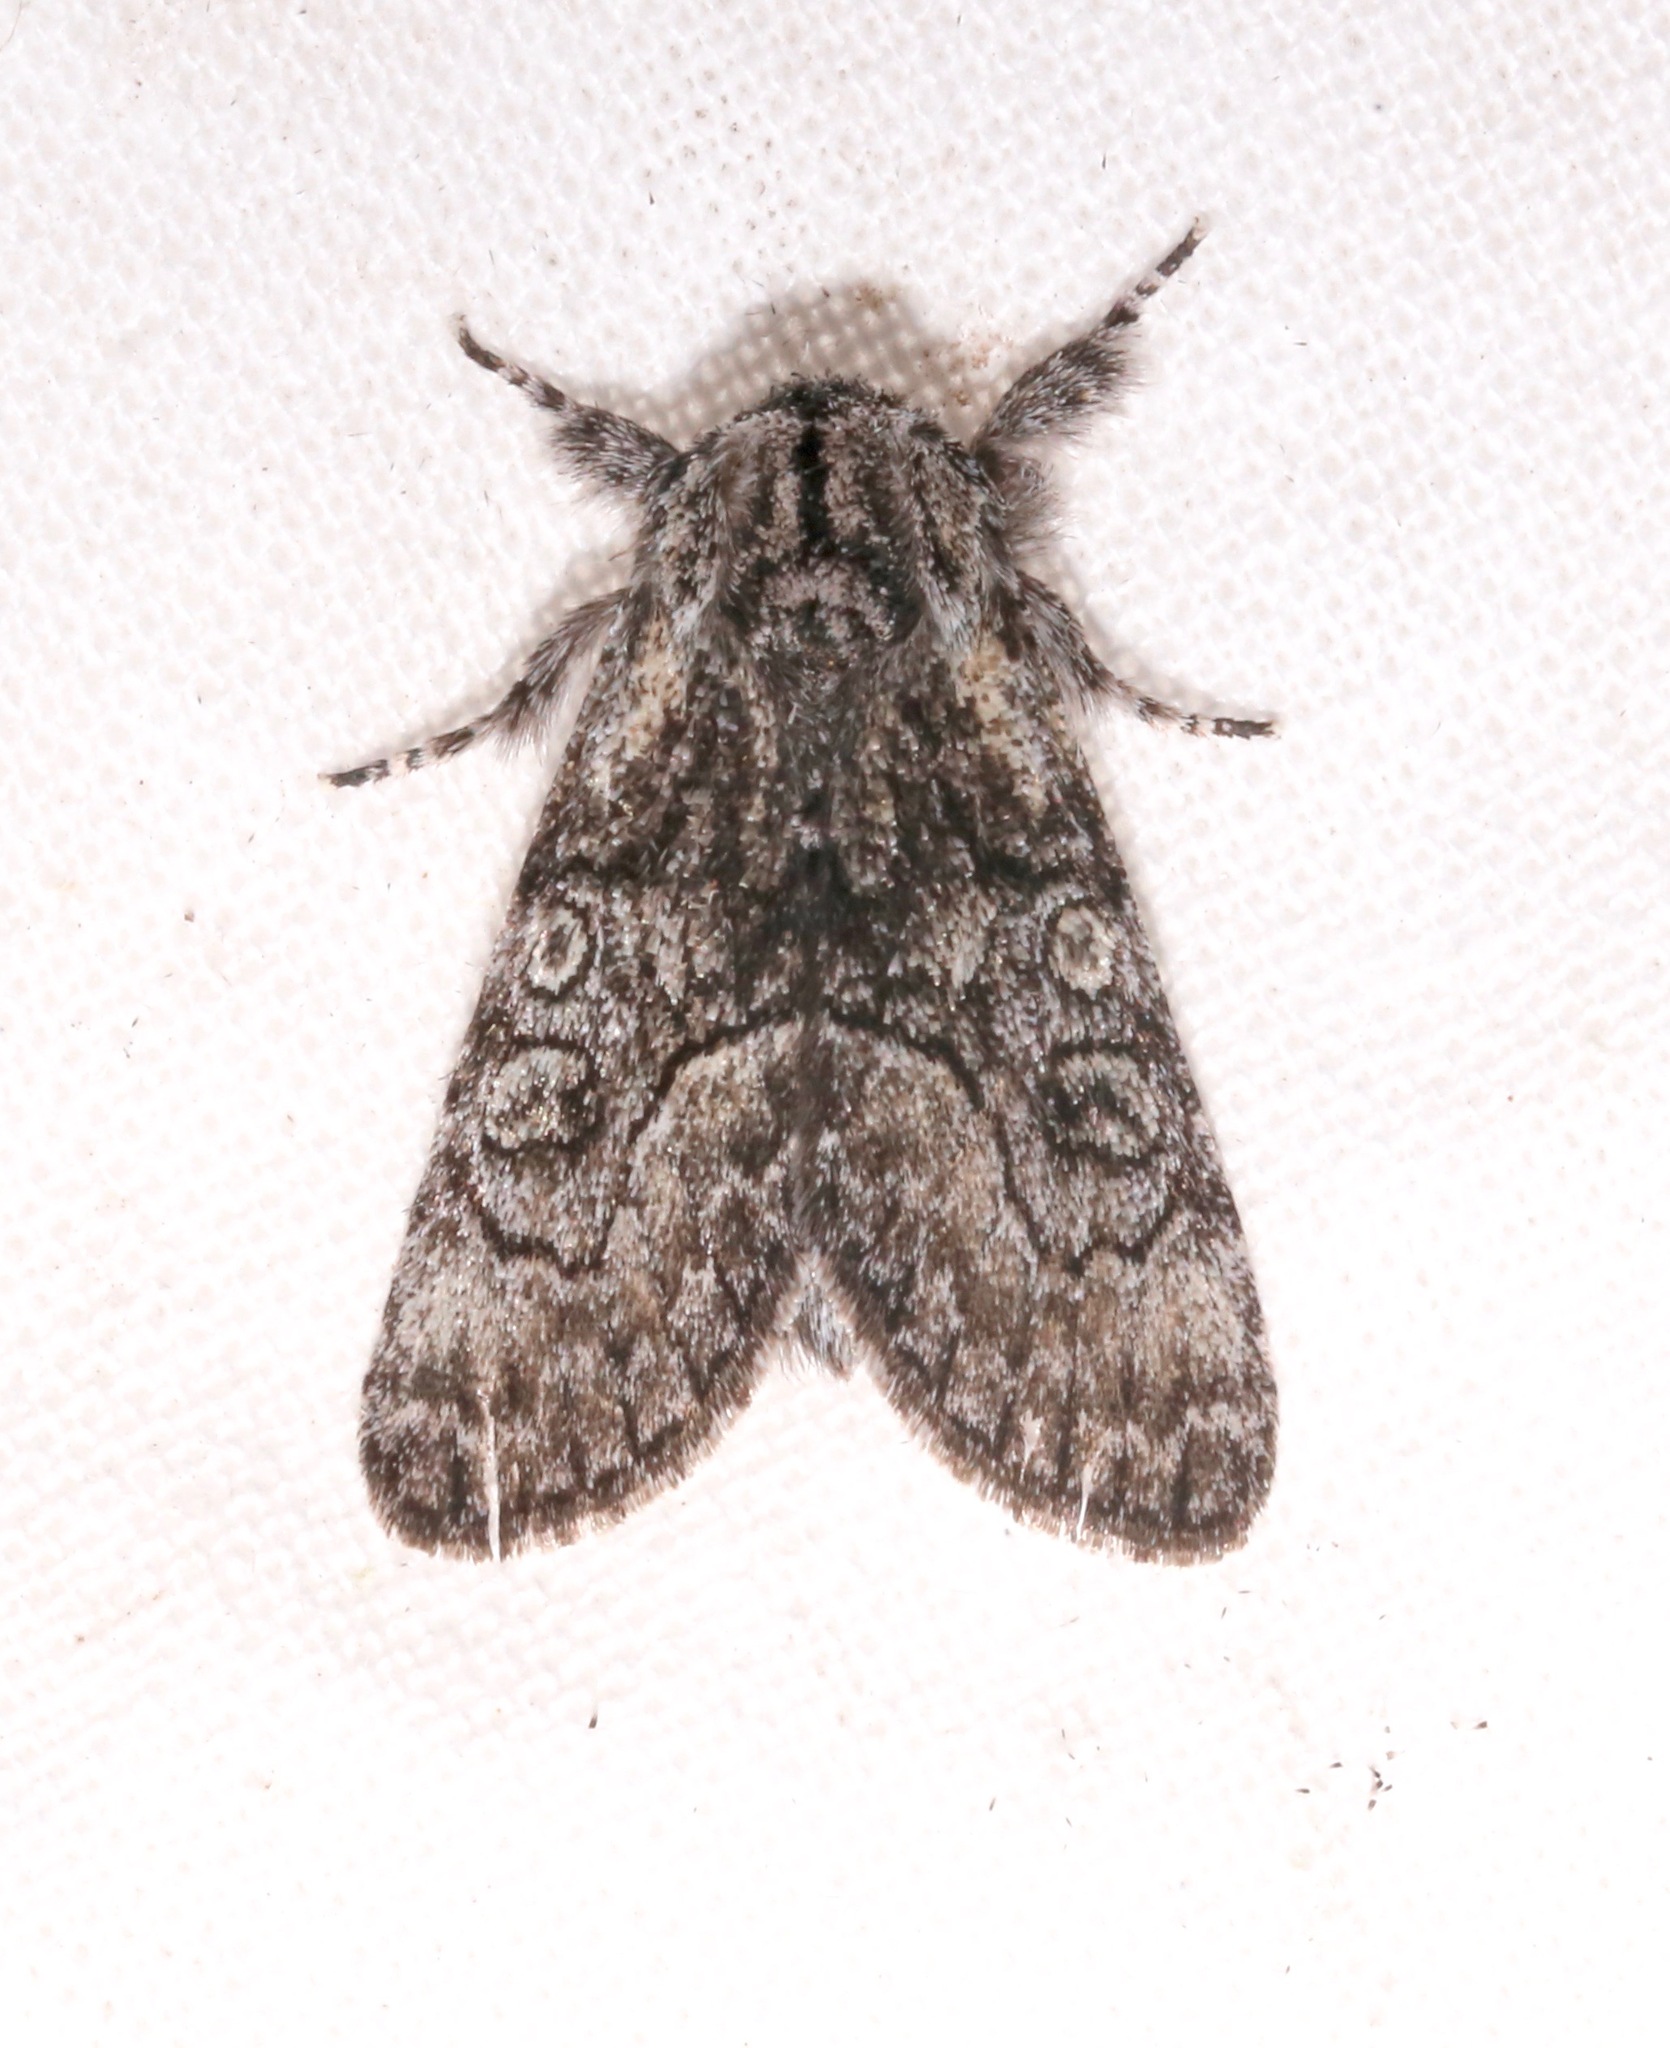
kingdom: Animalia
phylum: Arthropoda
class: Insecta
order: Lepidoptera
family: Noctuidae
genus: Raphia
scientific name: Raphia frater
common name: Brother
